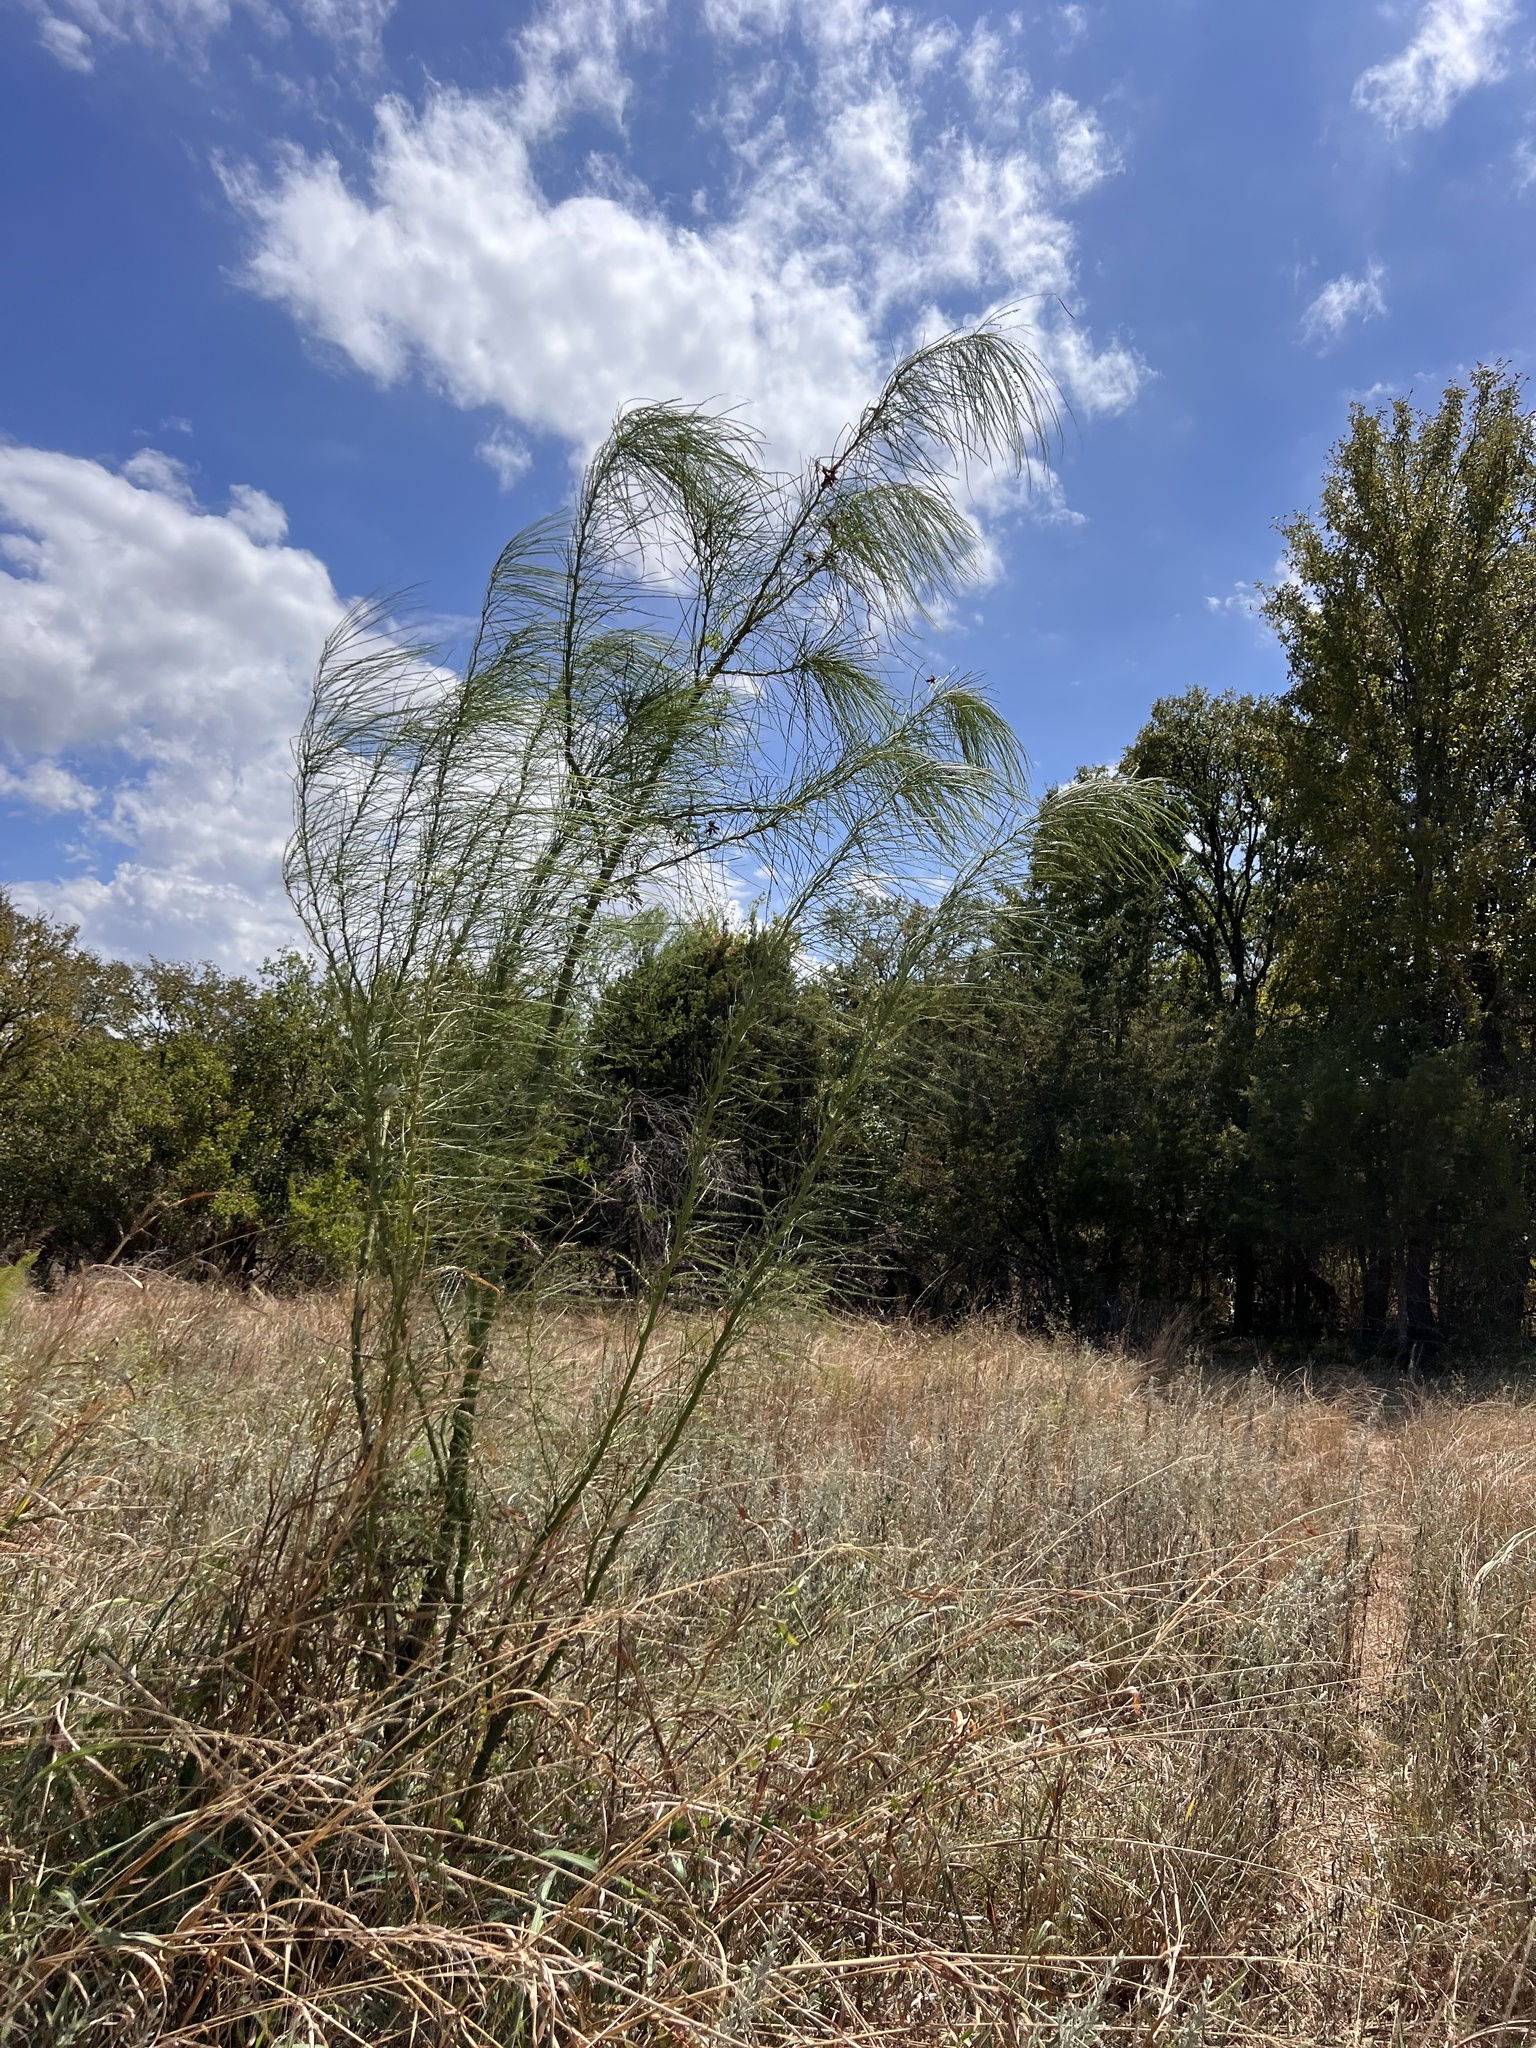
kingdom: Plantae
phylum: Tracheophyta
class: Magnoliopsida
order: Fabales
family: Fabaceae
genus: Parkinsonia
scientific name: Parkinsonia aculeata
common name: Jerusalem thorn
